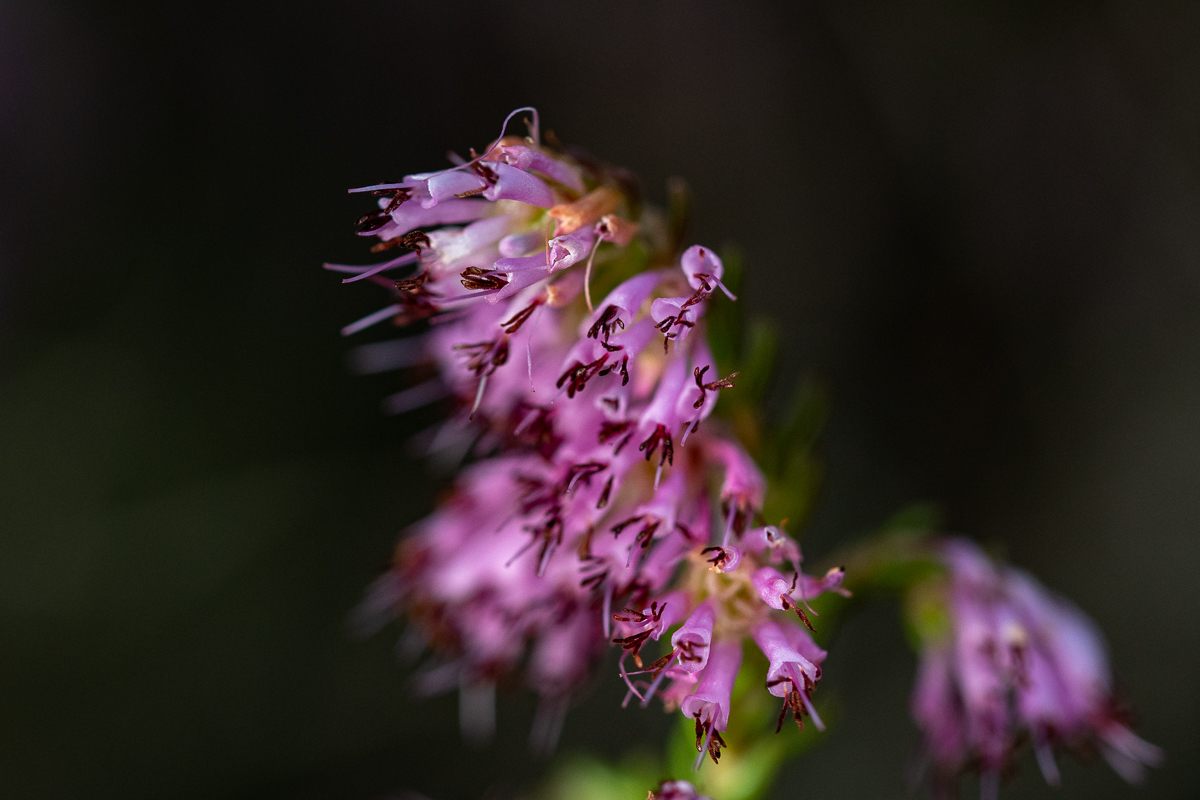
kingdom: Plantae
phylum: Tracheophyta
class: Magnoliopsida
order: Ericales
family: Ericaceae
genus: Erica
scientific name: Erica labialis
